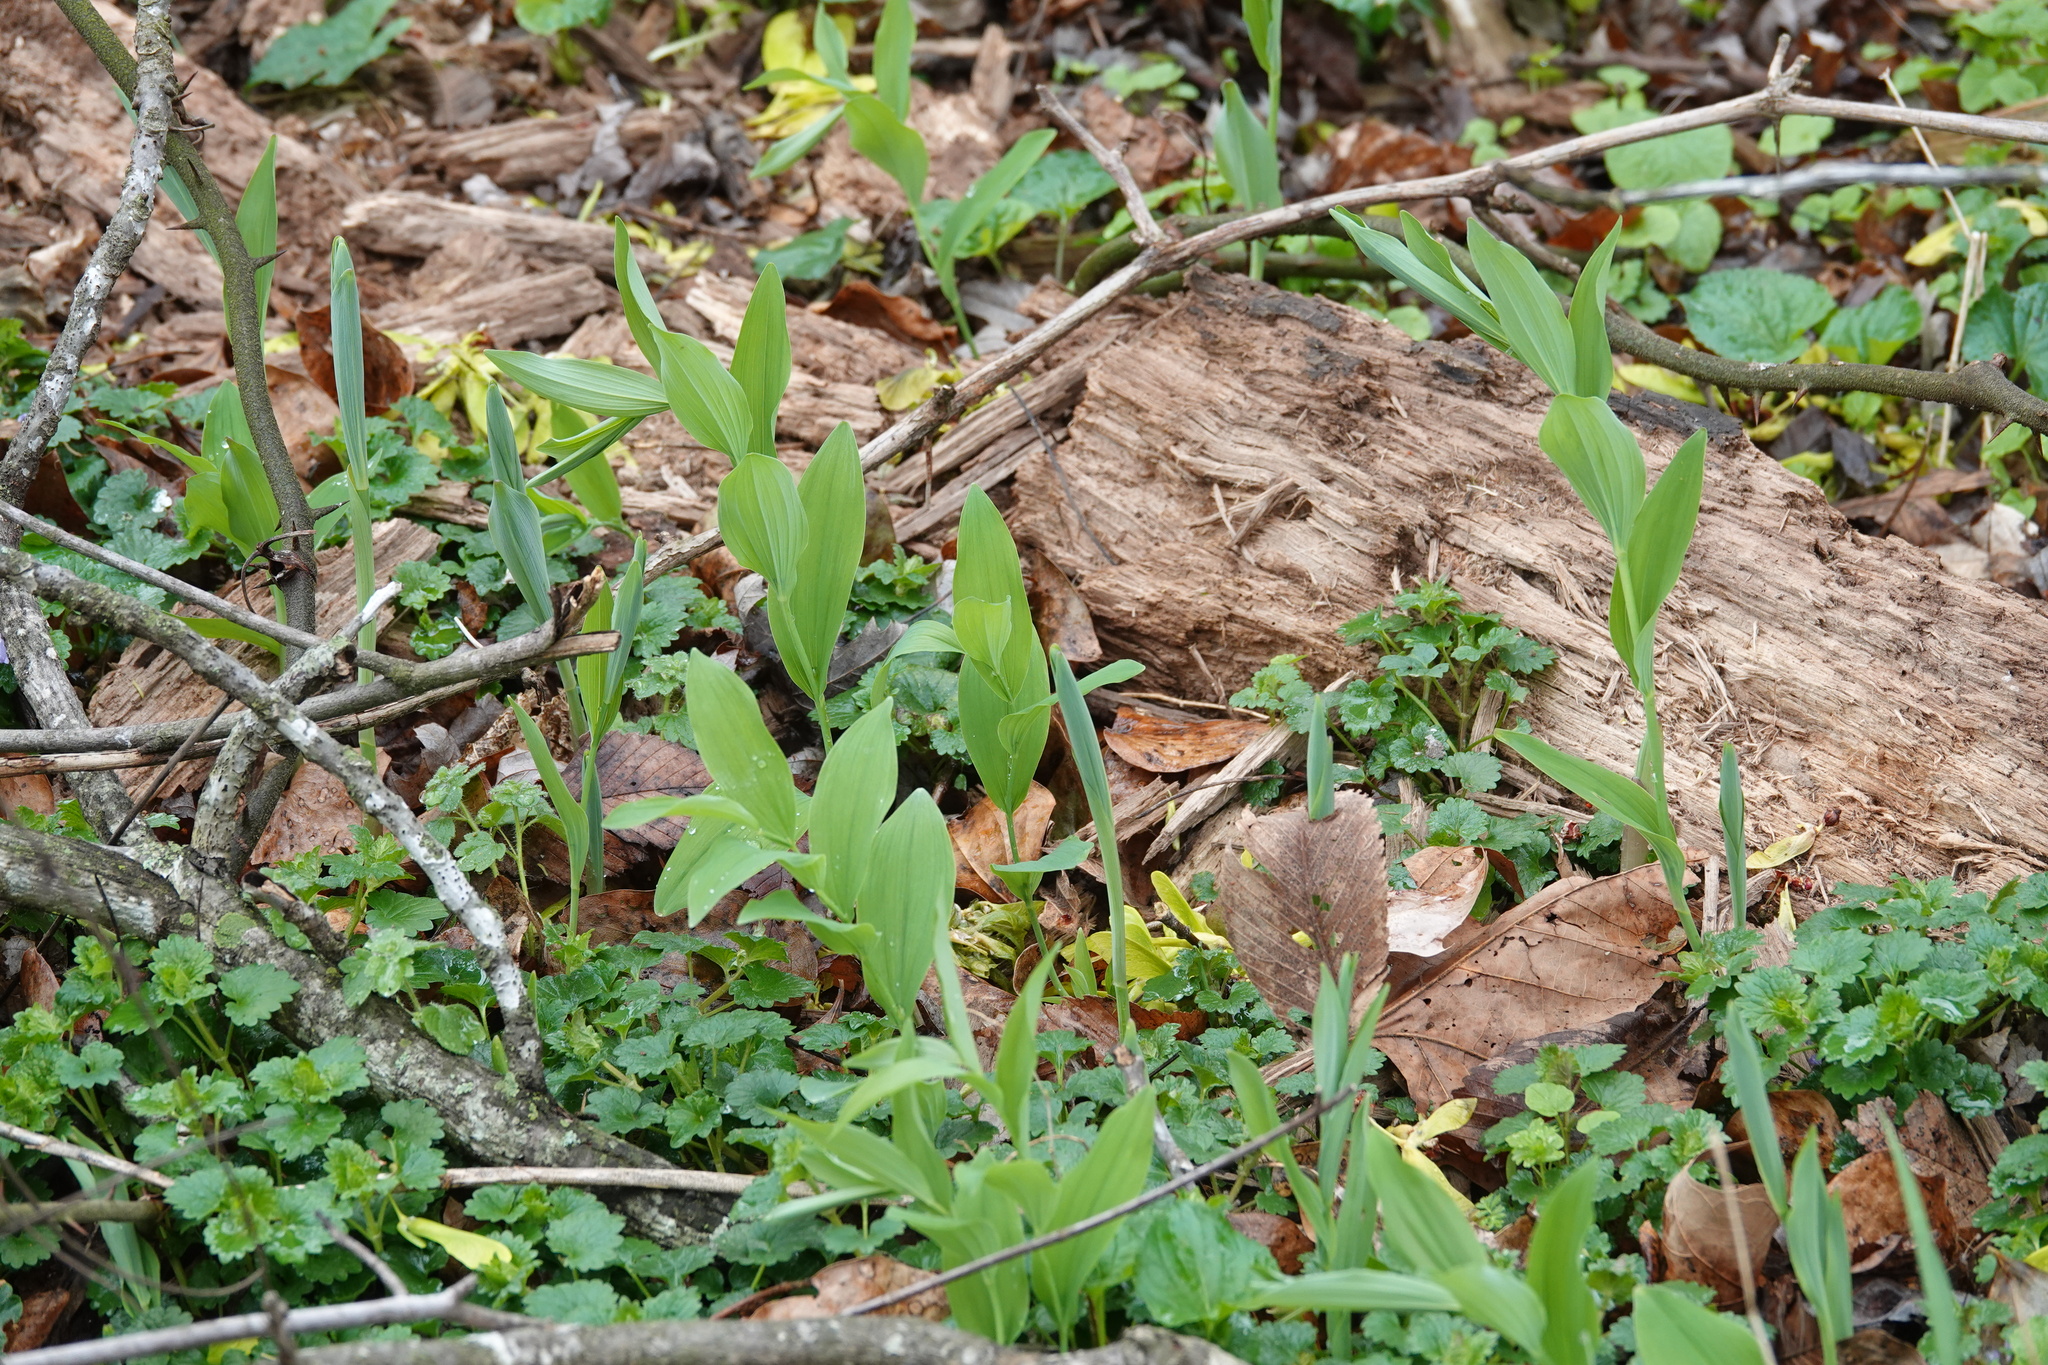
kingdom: Plantae
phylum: Tracheophyta
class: Liliopsida
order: Asparagales
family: Asparagaceae
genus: Polygonatum
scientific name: Polygonatum biflorum
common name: American solomon's-seal
